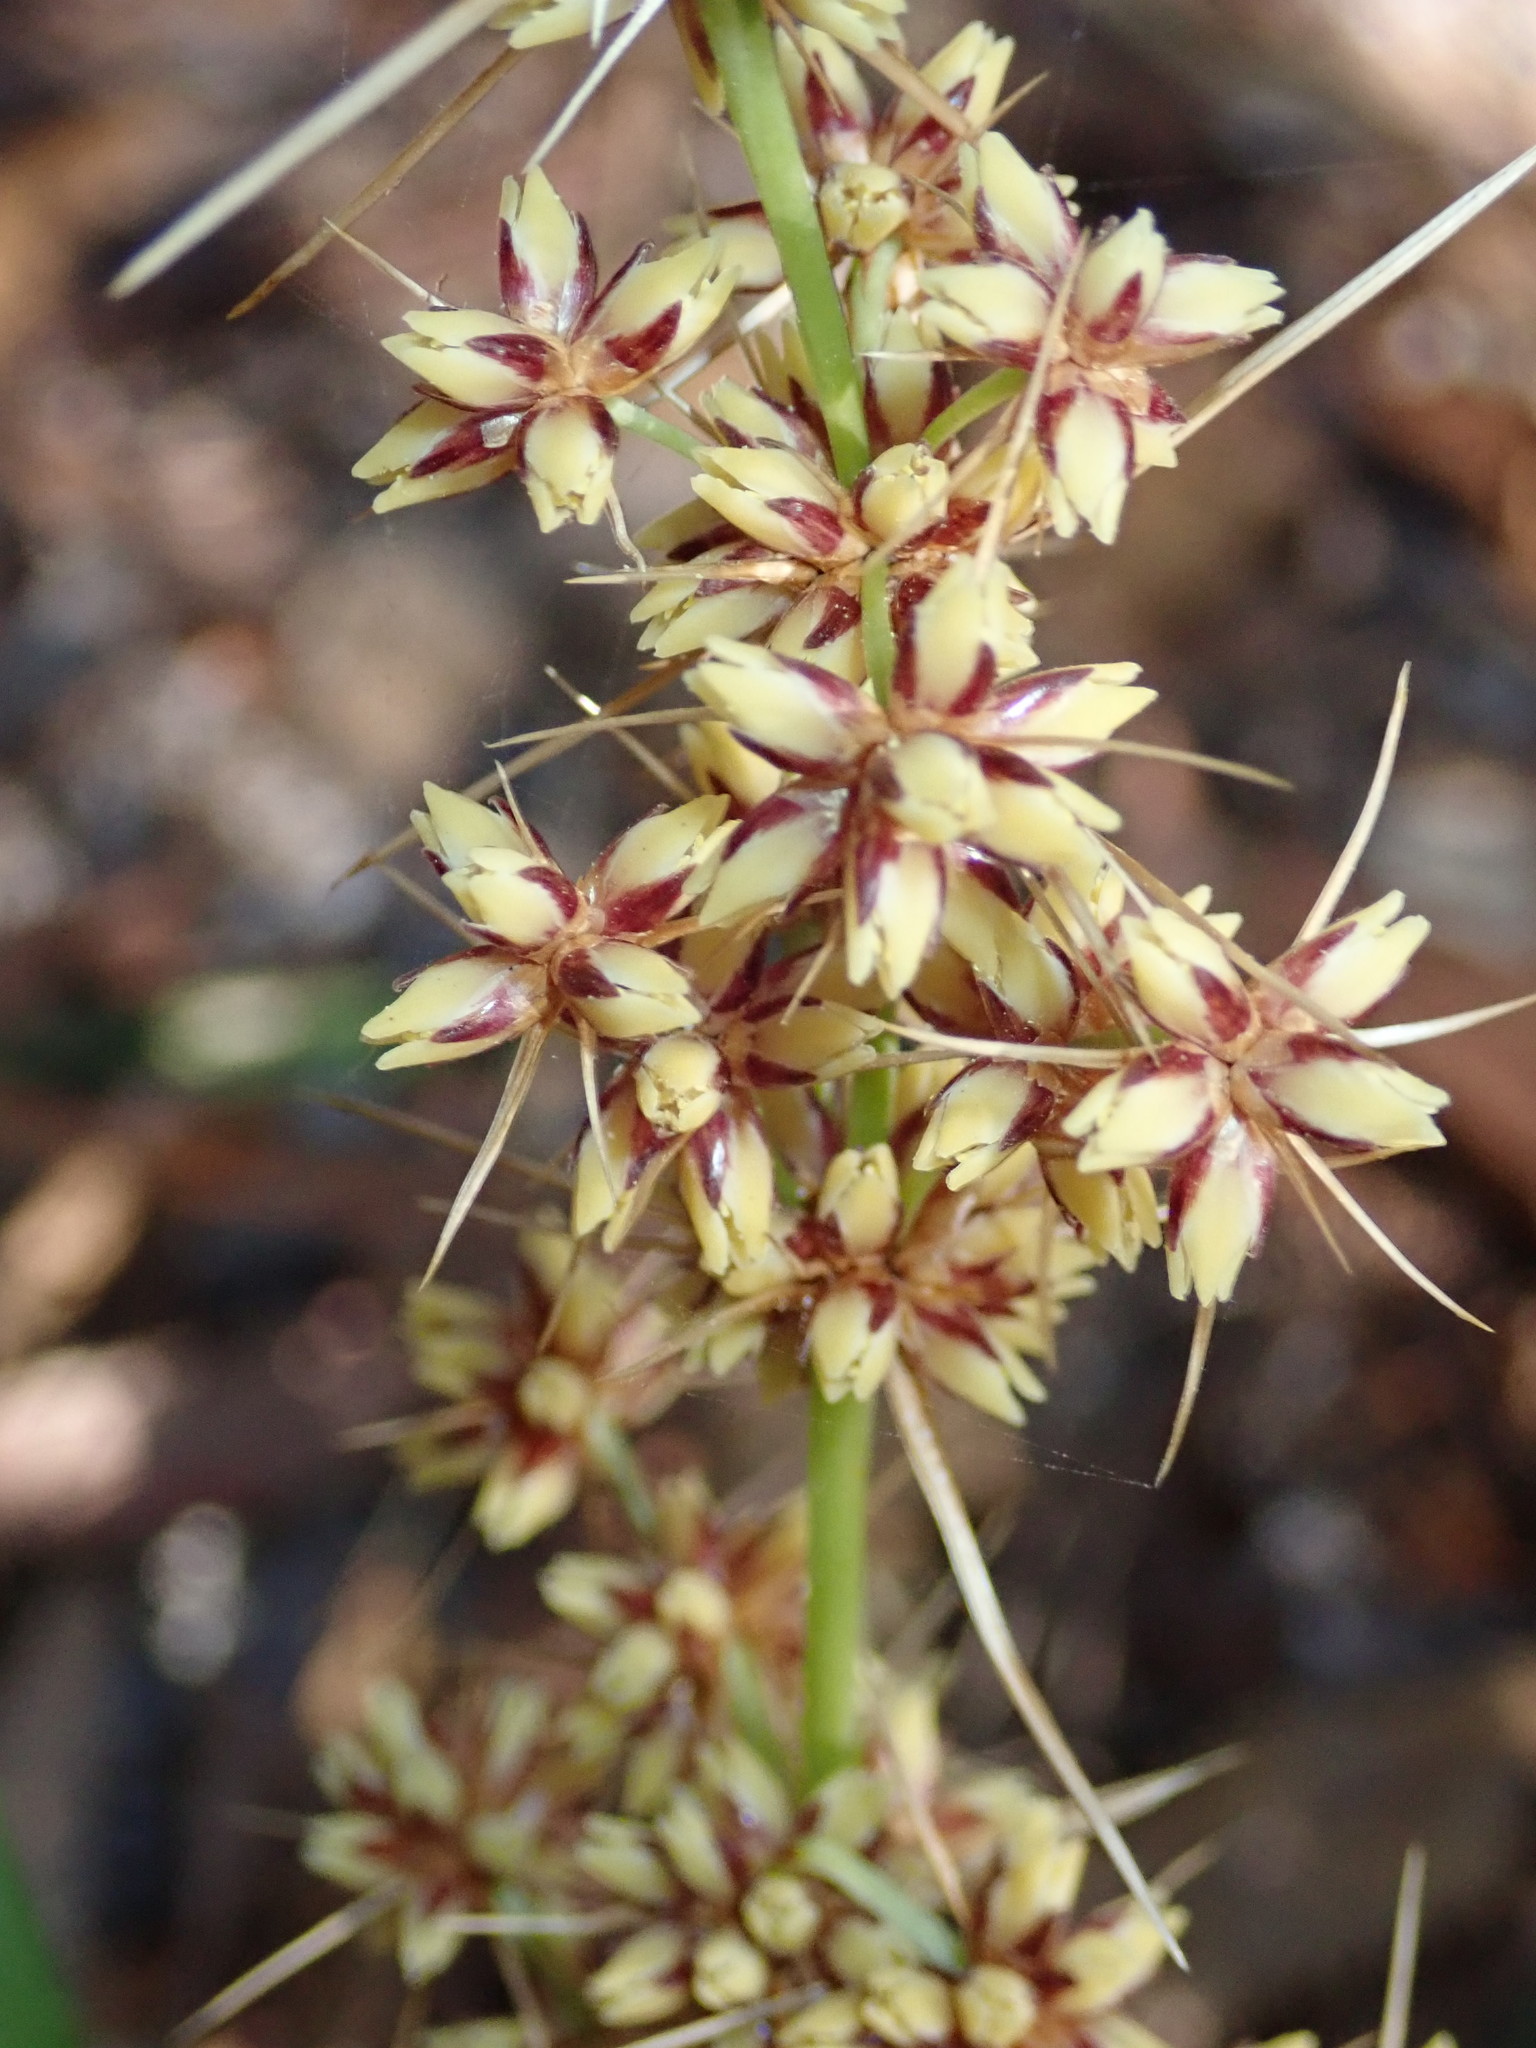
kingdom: Plantae
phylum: Tracheophyta
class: Liliopsida
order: Asparagales
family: Asparagaceae
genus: Lomandra
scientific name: Lomandra longifolia
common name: Longleaf mat-rush
